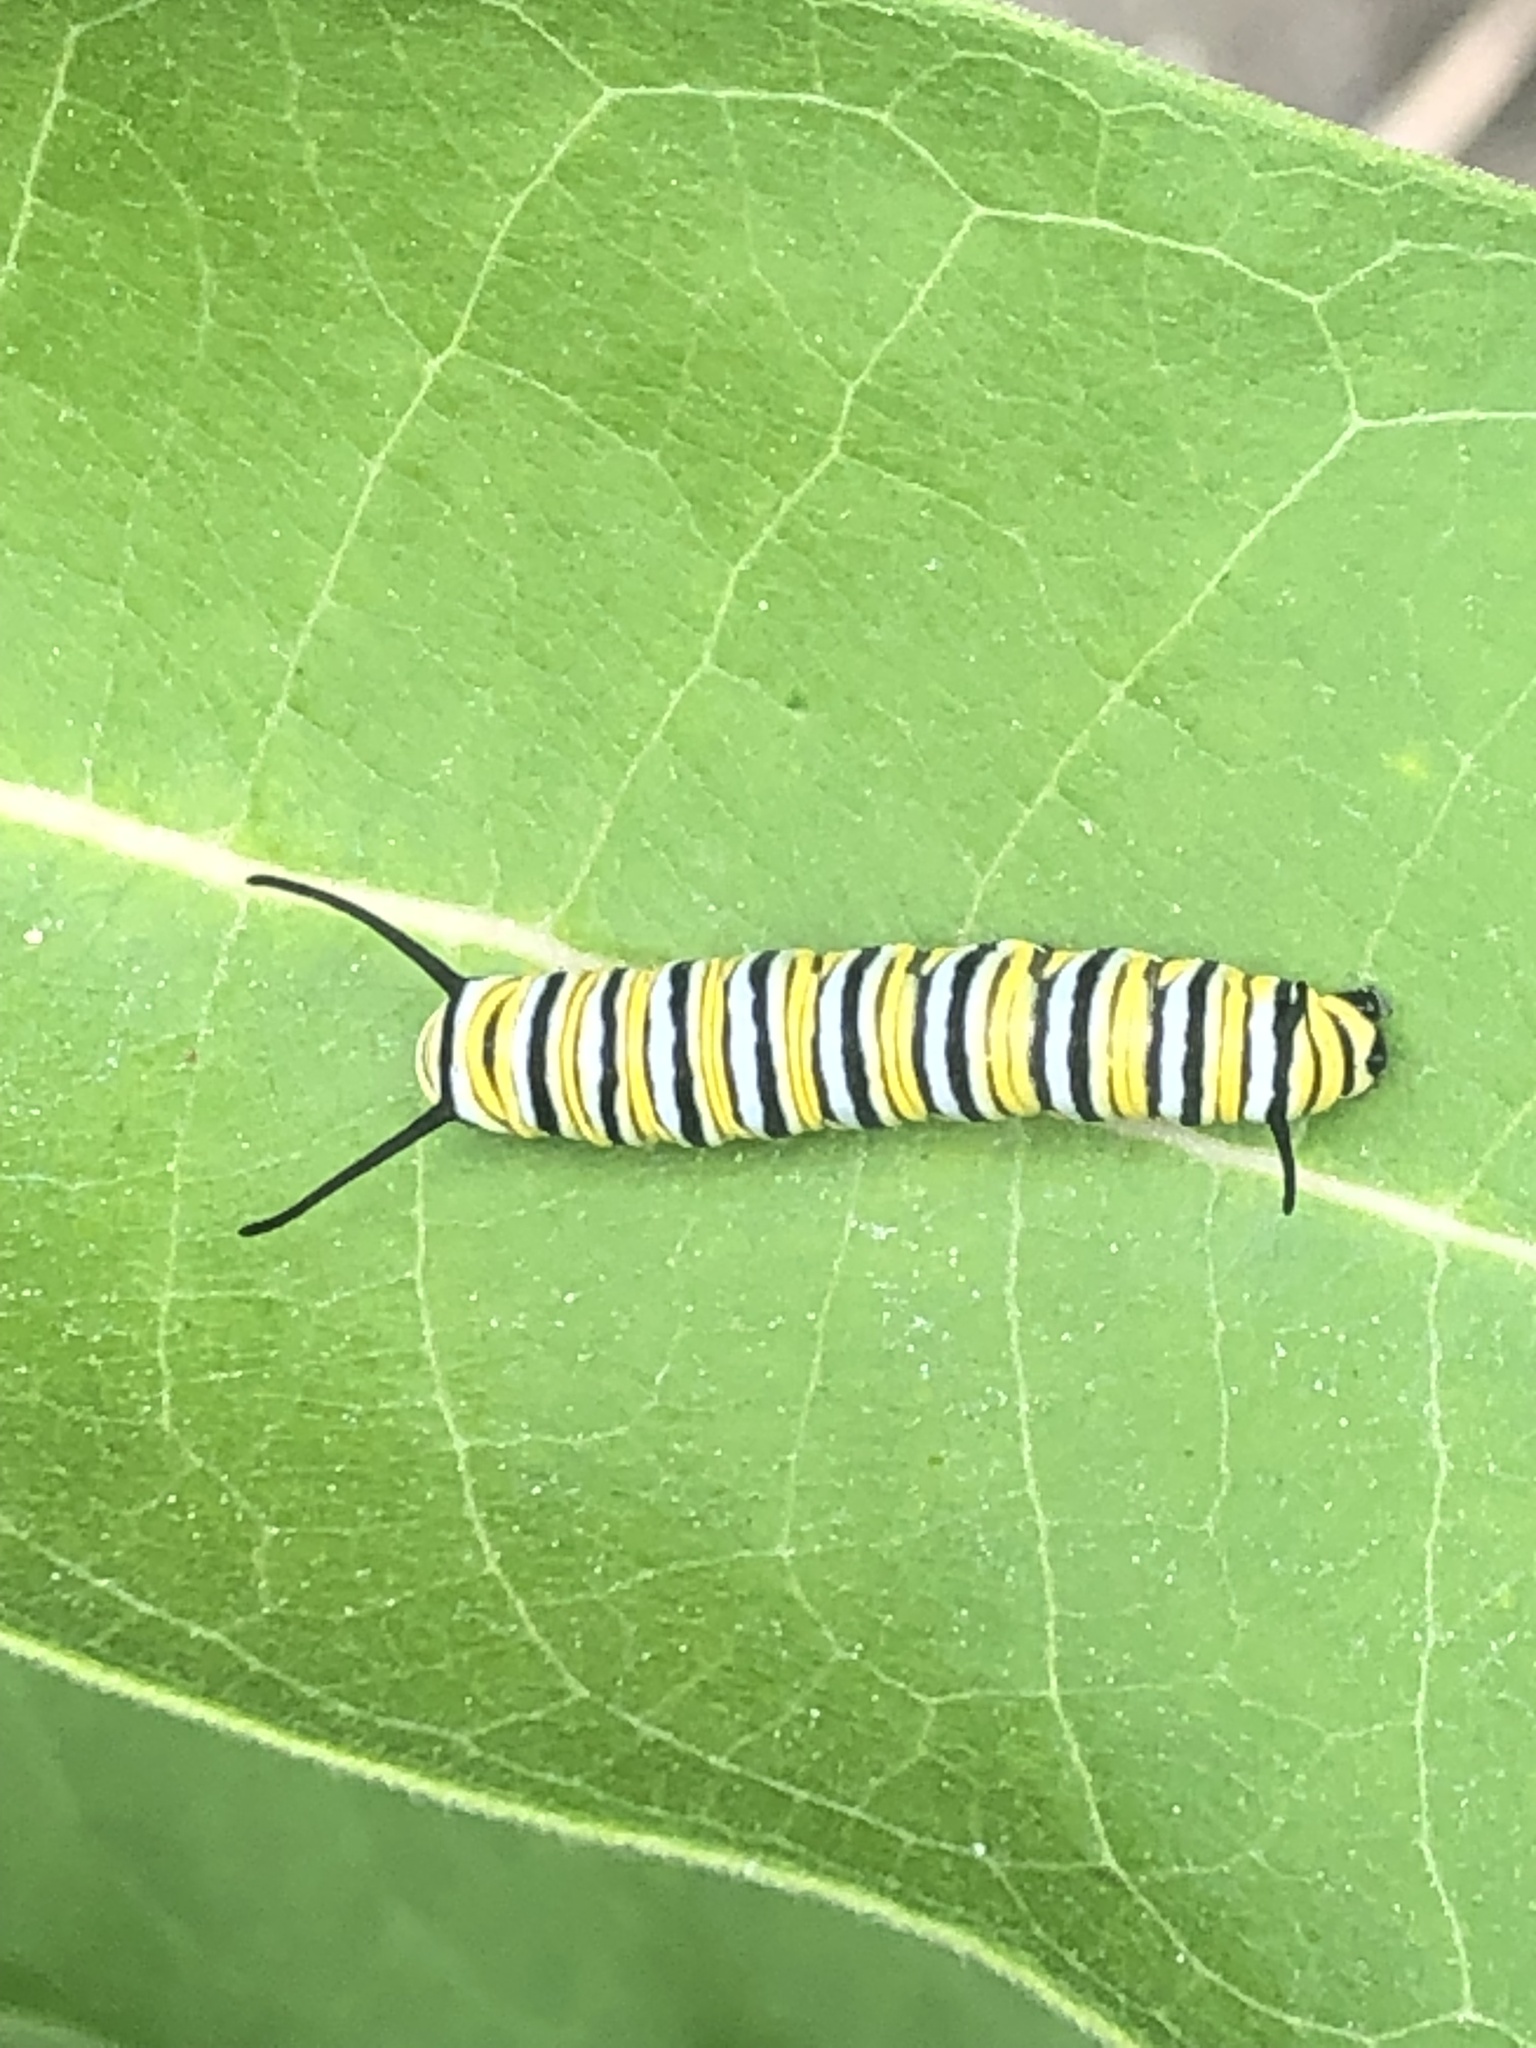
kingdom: Animalia
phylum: Arthropoda
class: Insecta
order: Lepidoptera
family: Nymphalidae
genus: Danaus
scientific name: Danaus plexippus
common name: Monarch
